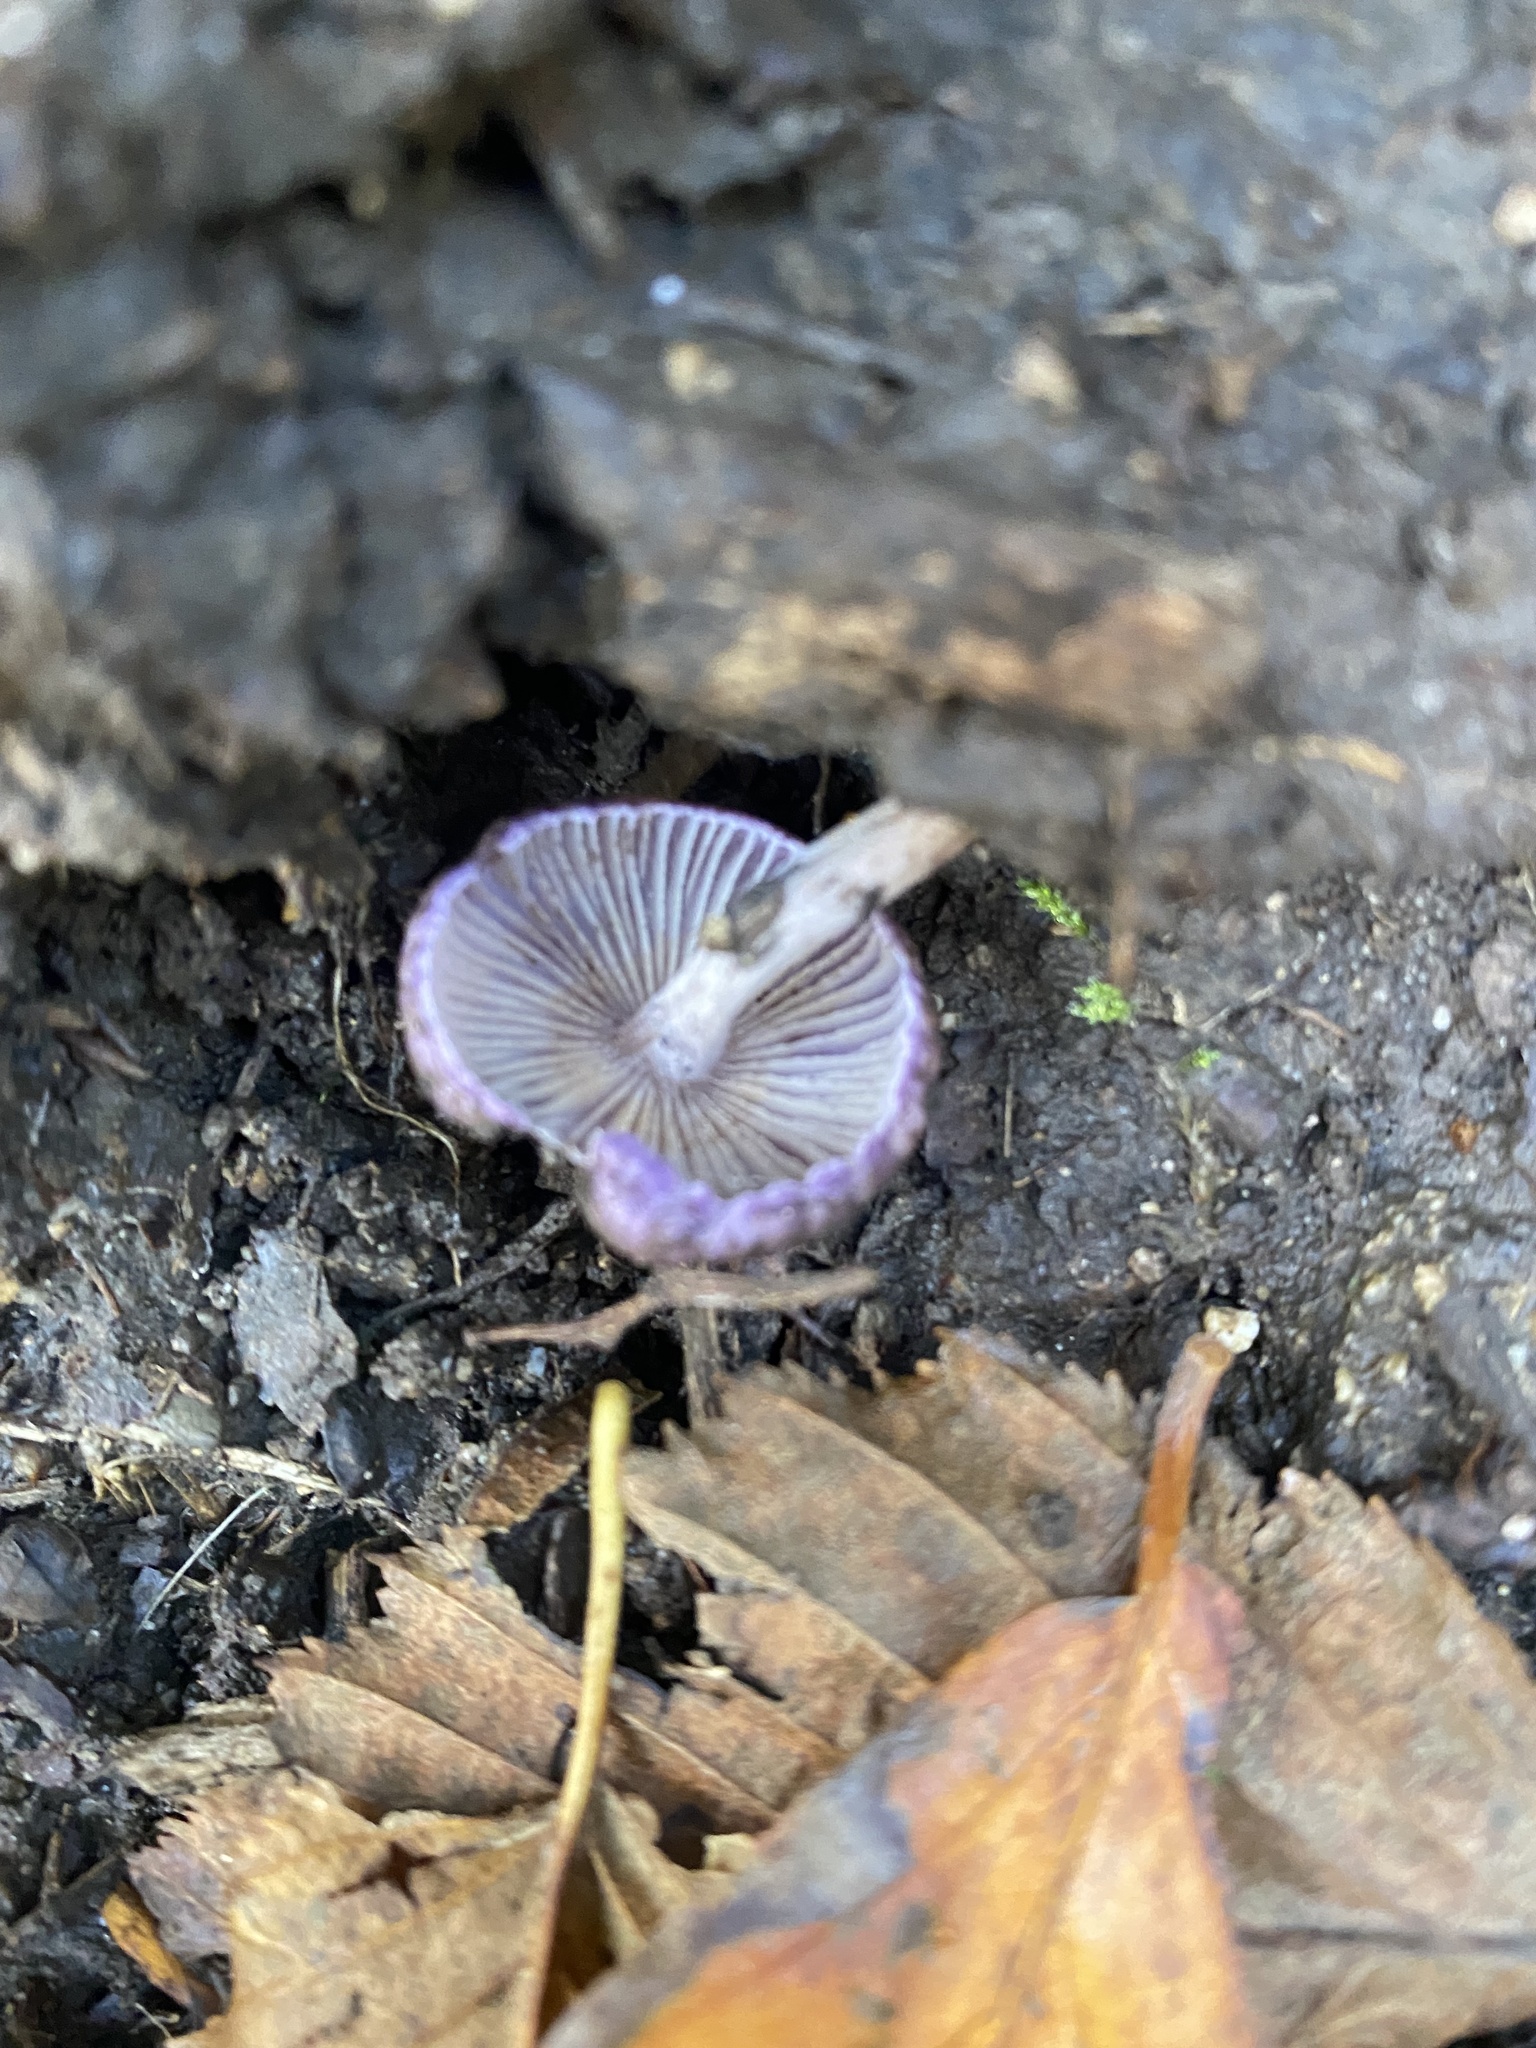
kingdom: Fungi
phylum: Basidiomycota
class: Agaricomycetes
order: Agaricales
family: Inocybaceae
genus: Inocybe
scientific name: Inocybe
